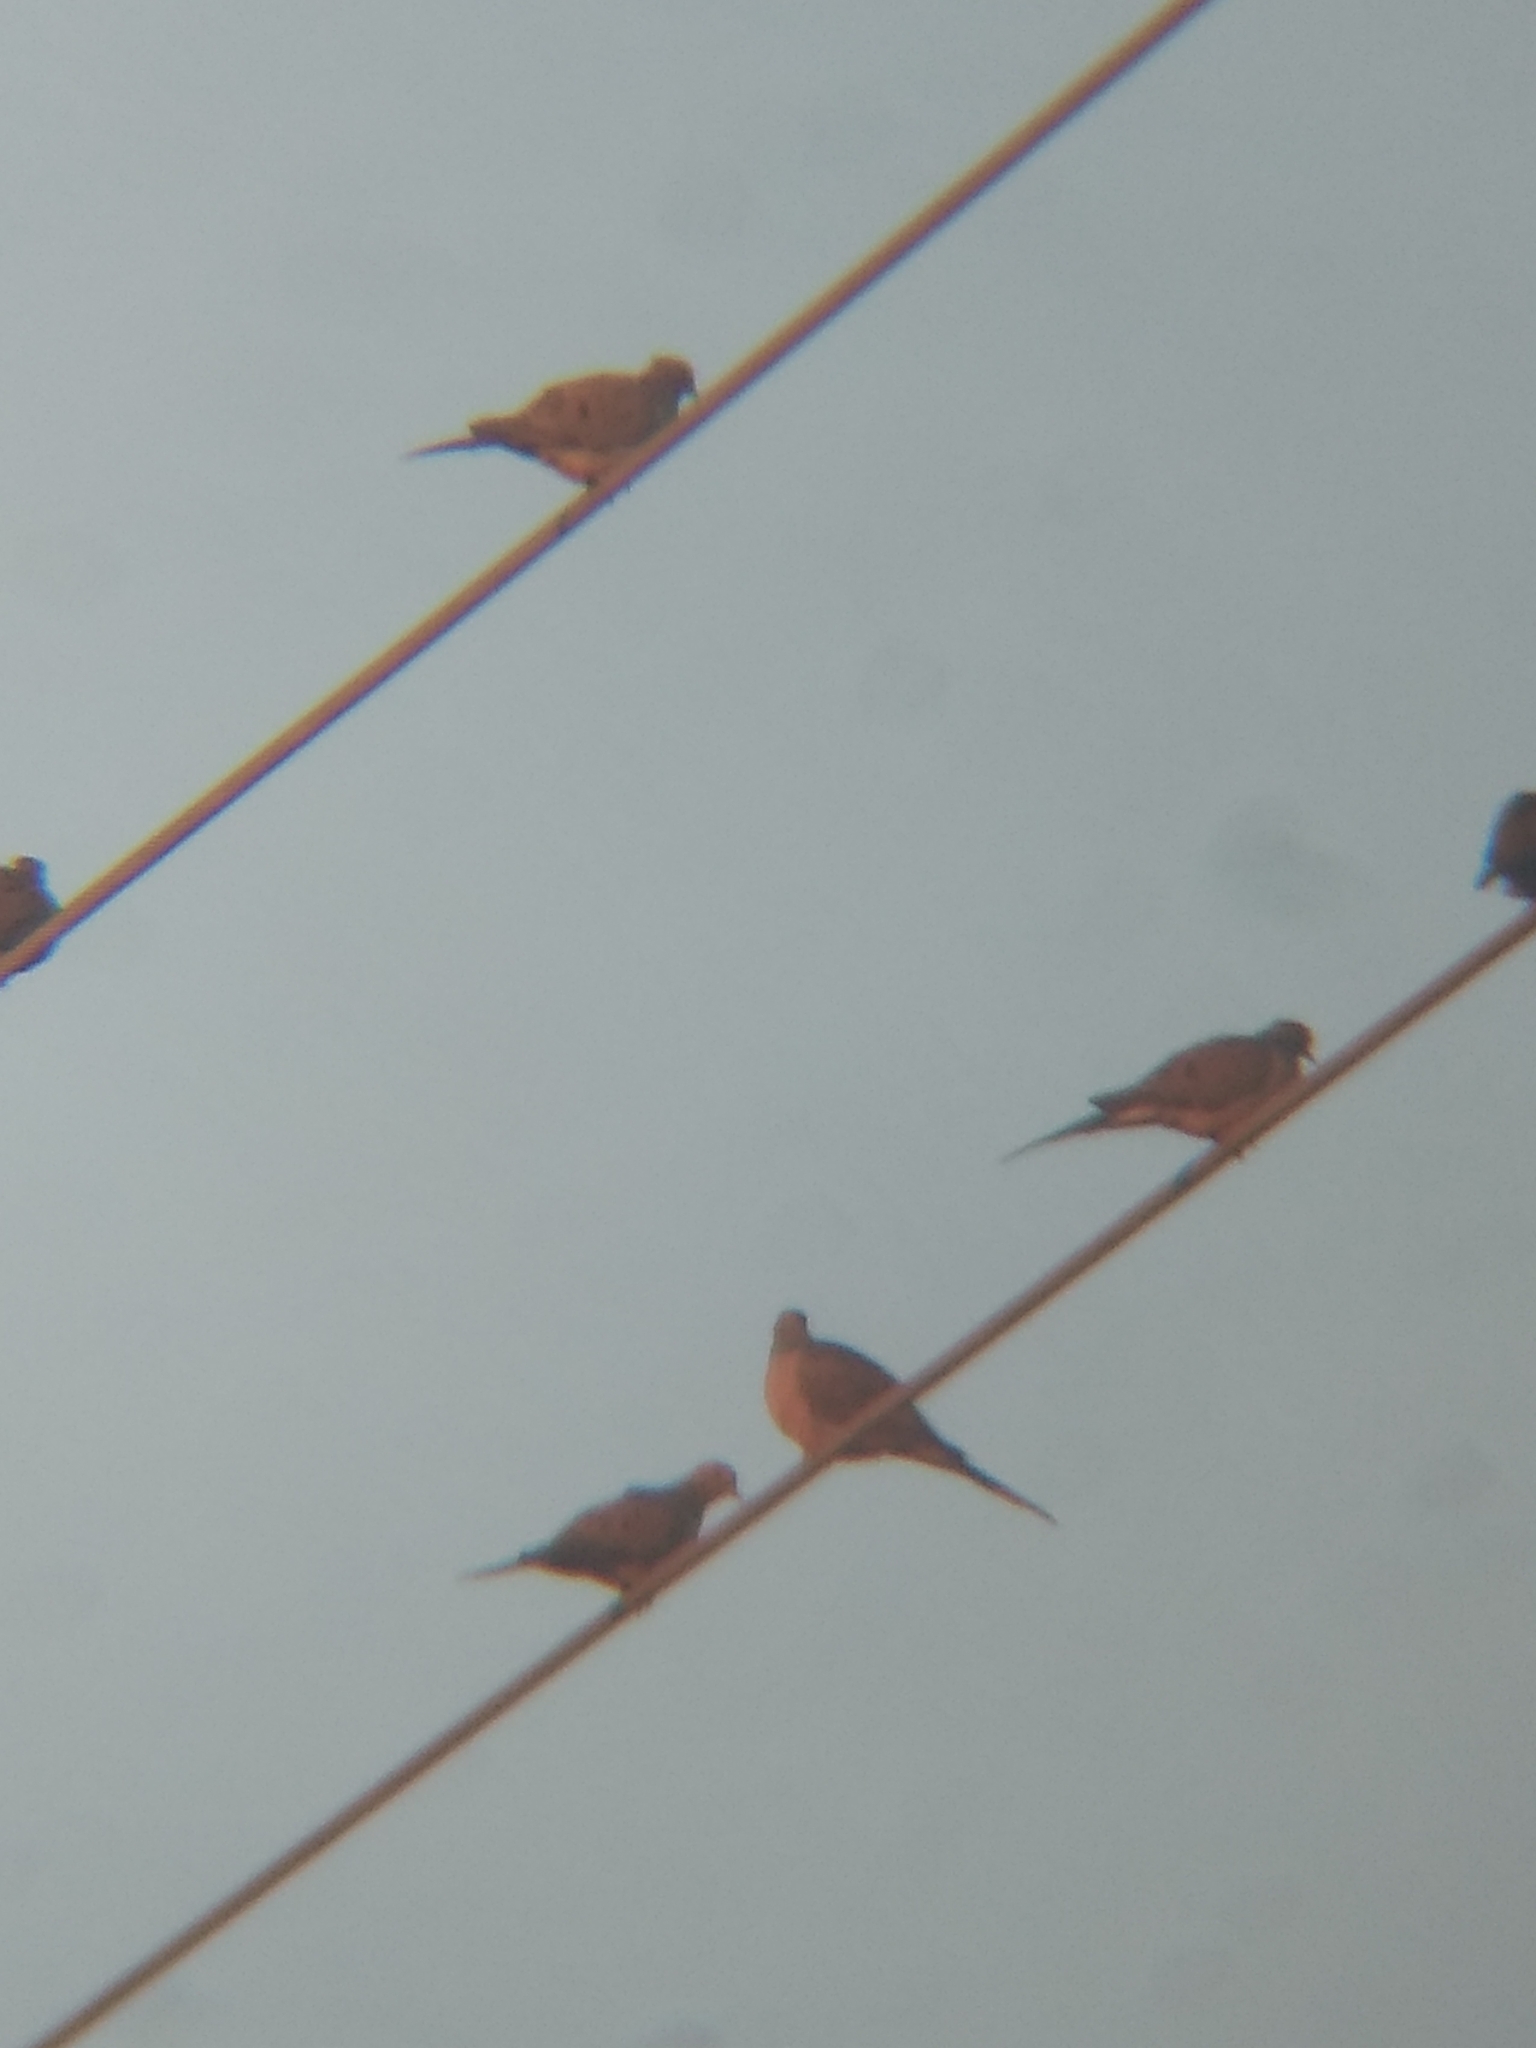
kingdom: Animalia
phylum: Chordata
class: Aves
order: Columbiformes
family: Columbidae
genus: Zenaida
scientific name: Zenaida macroura
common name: Mourning dove
